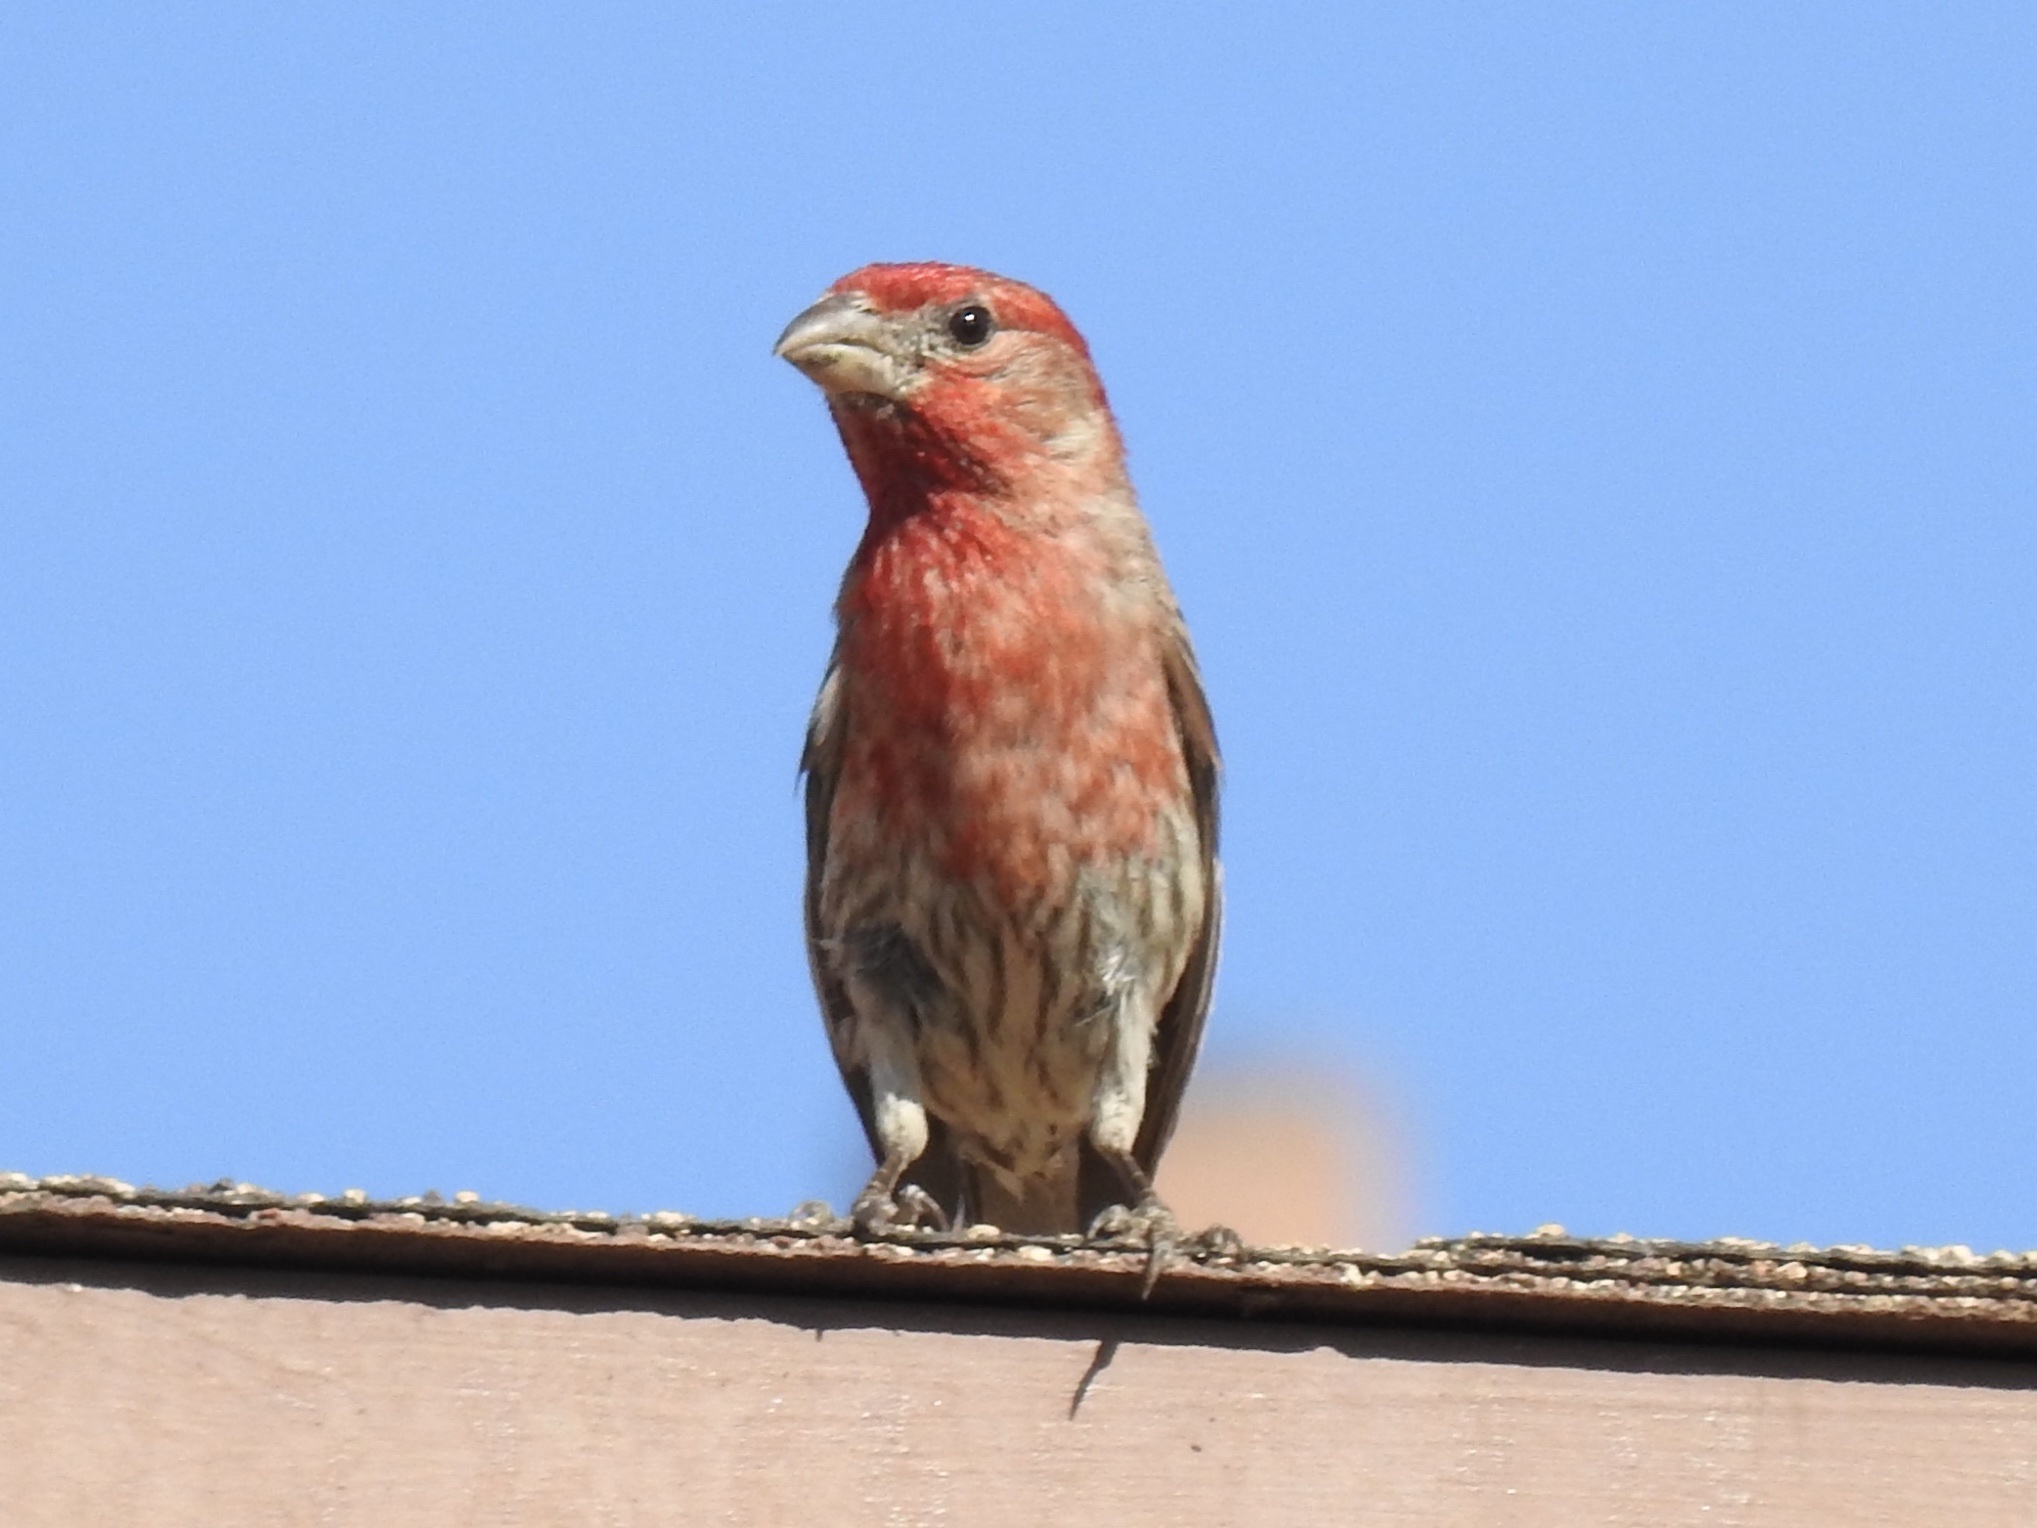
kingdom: Animalia
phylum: Chordata
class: Aves
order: Passeriformes
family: Fringillidae
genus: Haemorhous
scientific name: Haemorhous mexicanus
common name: House finch
